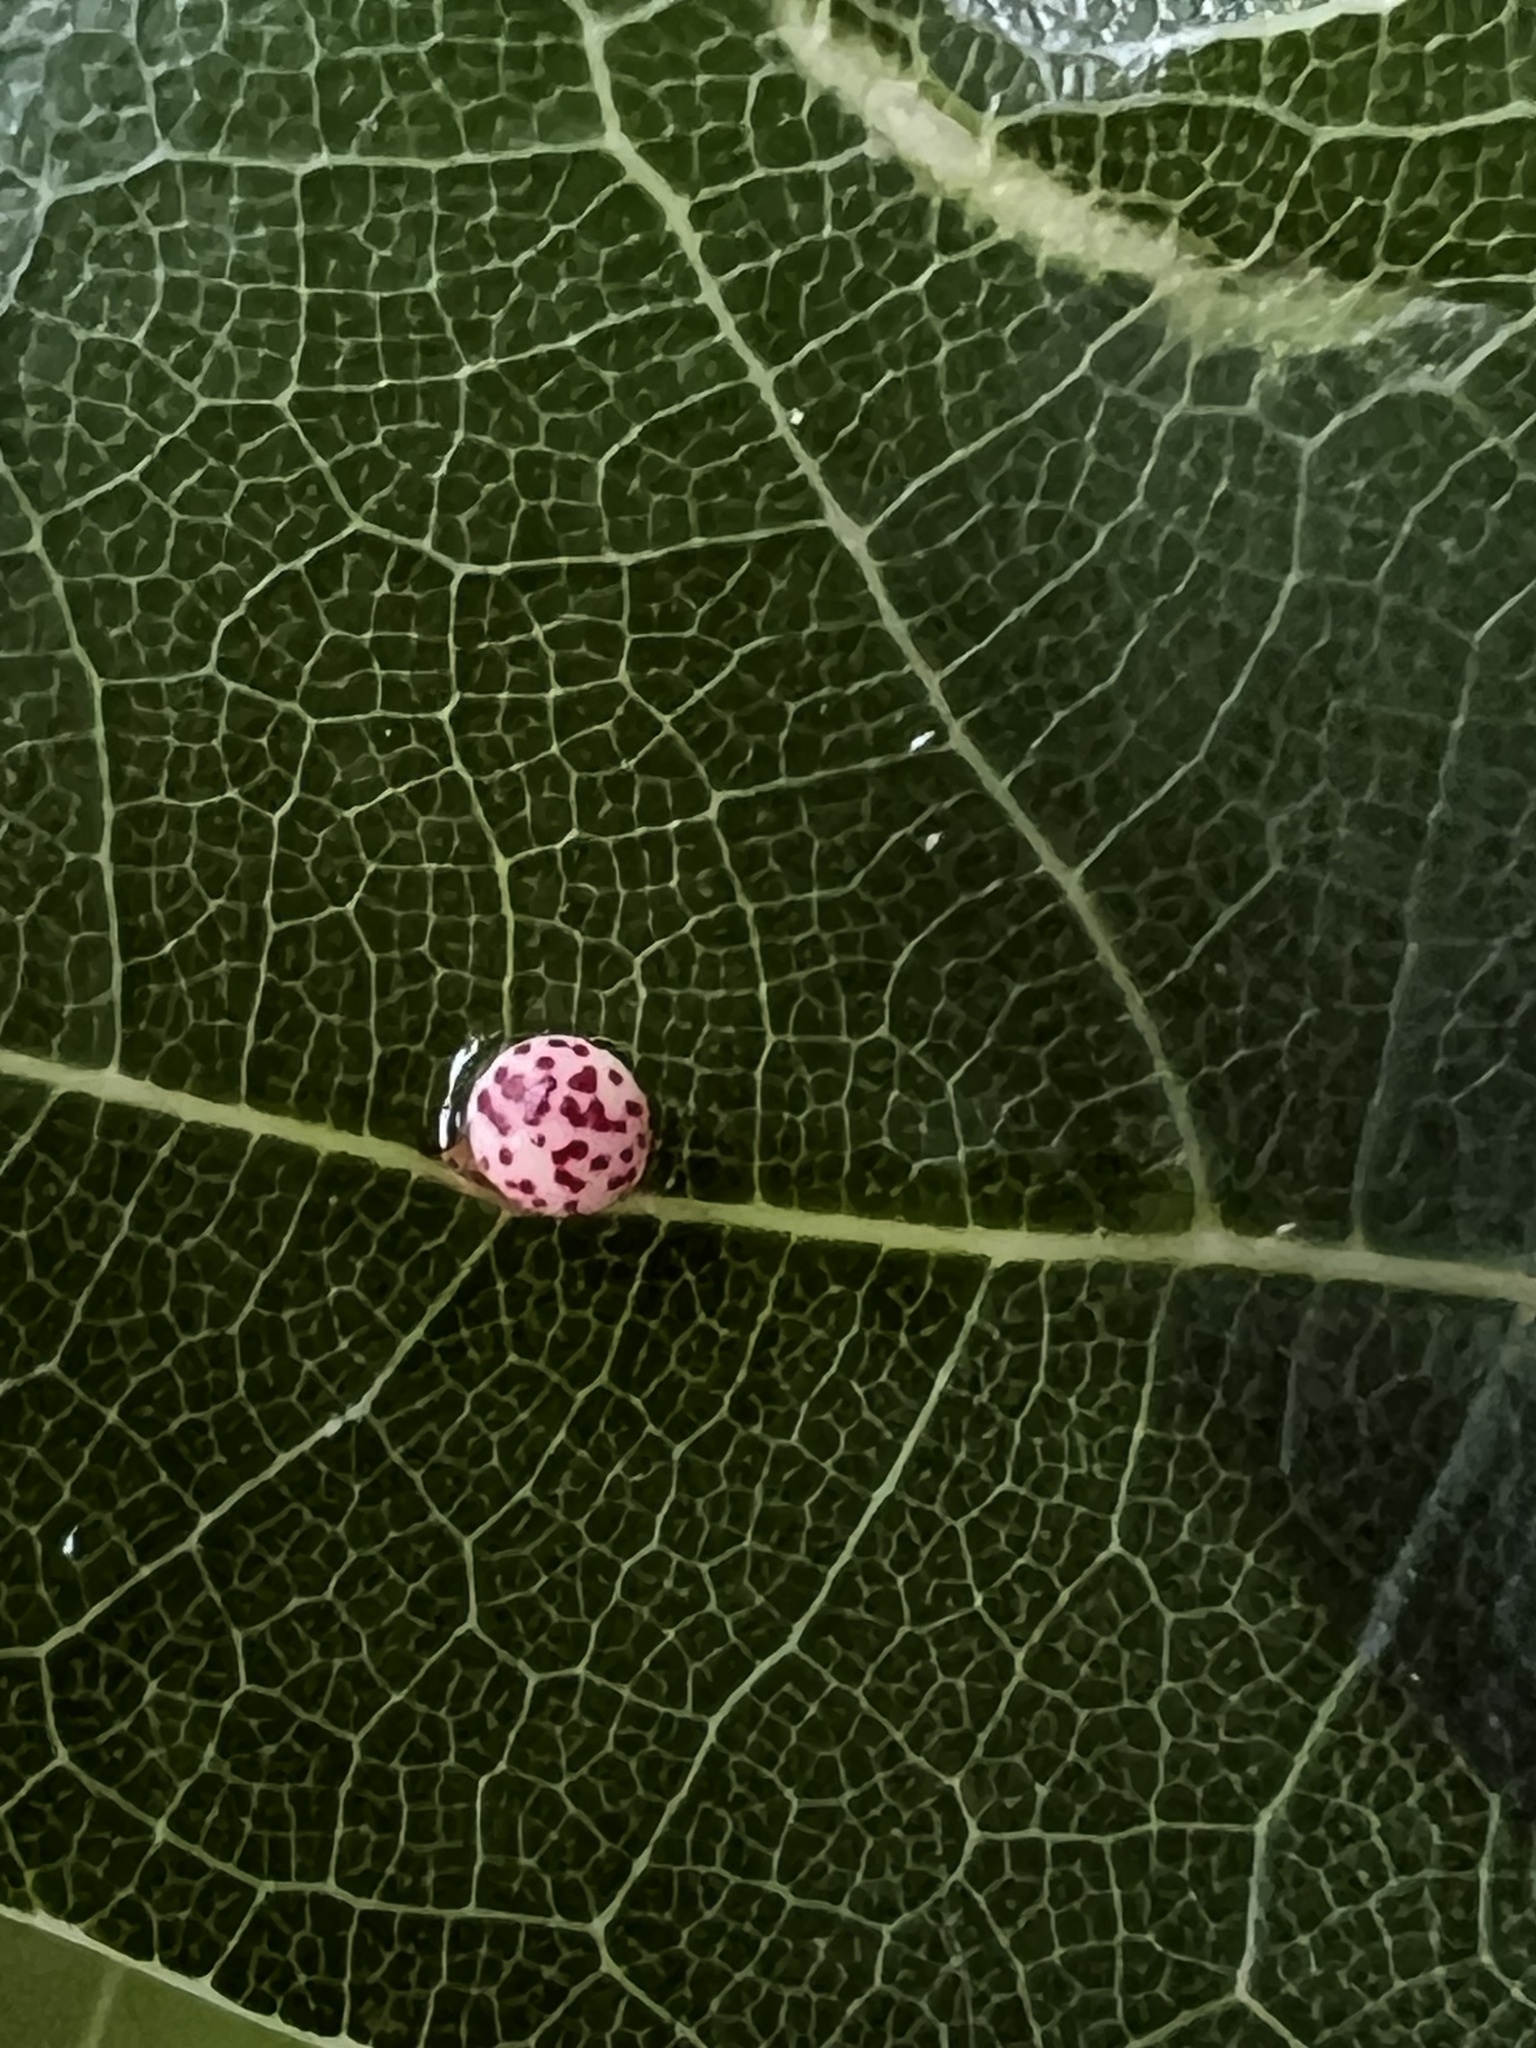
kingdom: Animalia
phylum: Arthropoda
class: Insecta
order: Hymenoptera
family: Cynipidae
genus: Zopheroteras
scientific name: Zopheroteras
